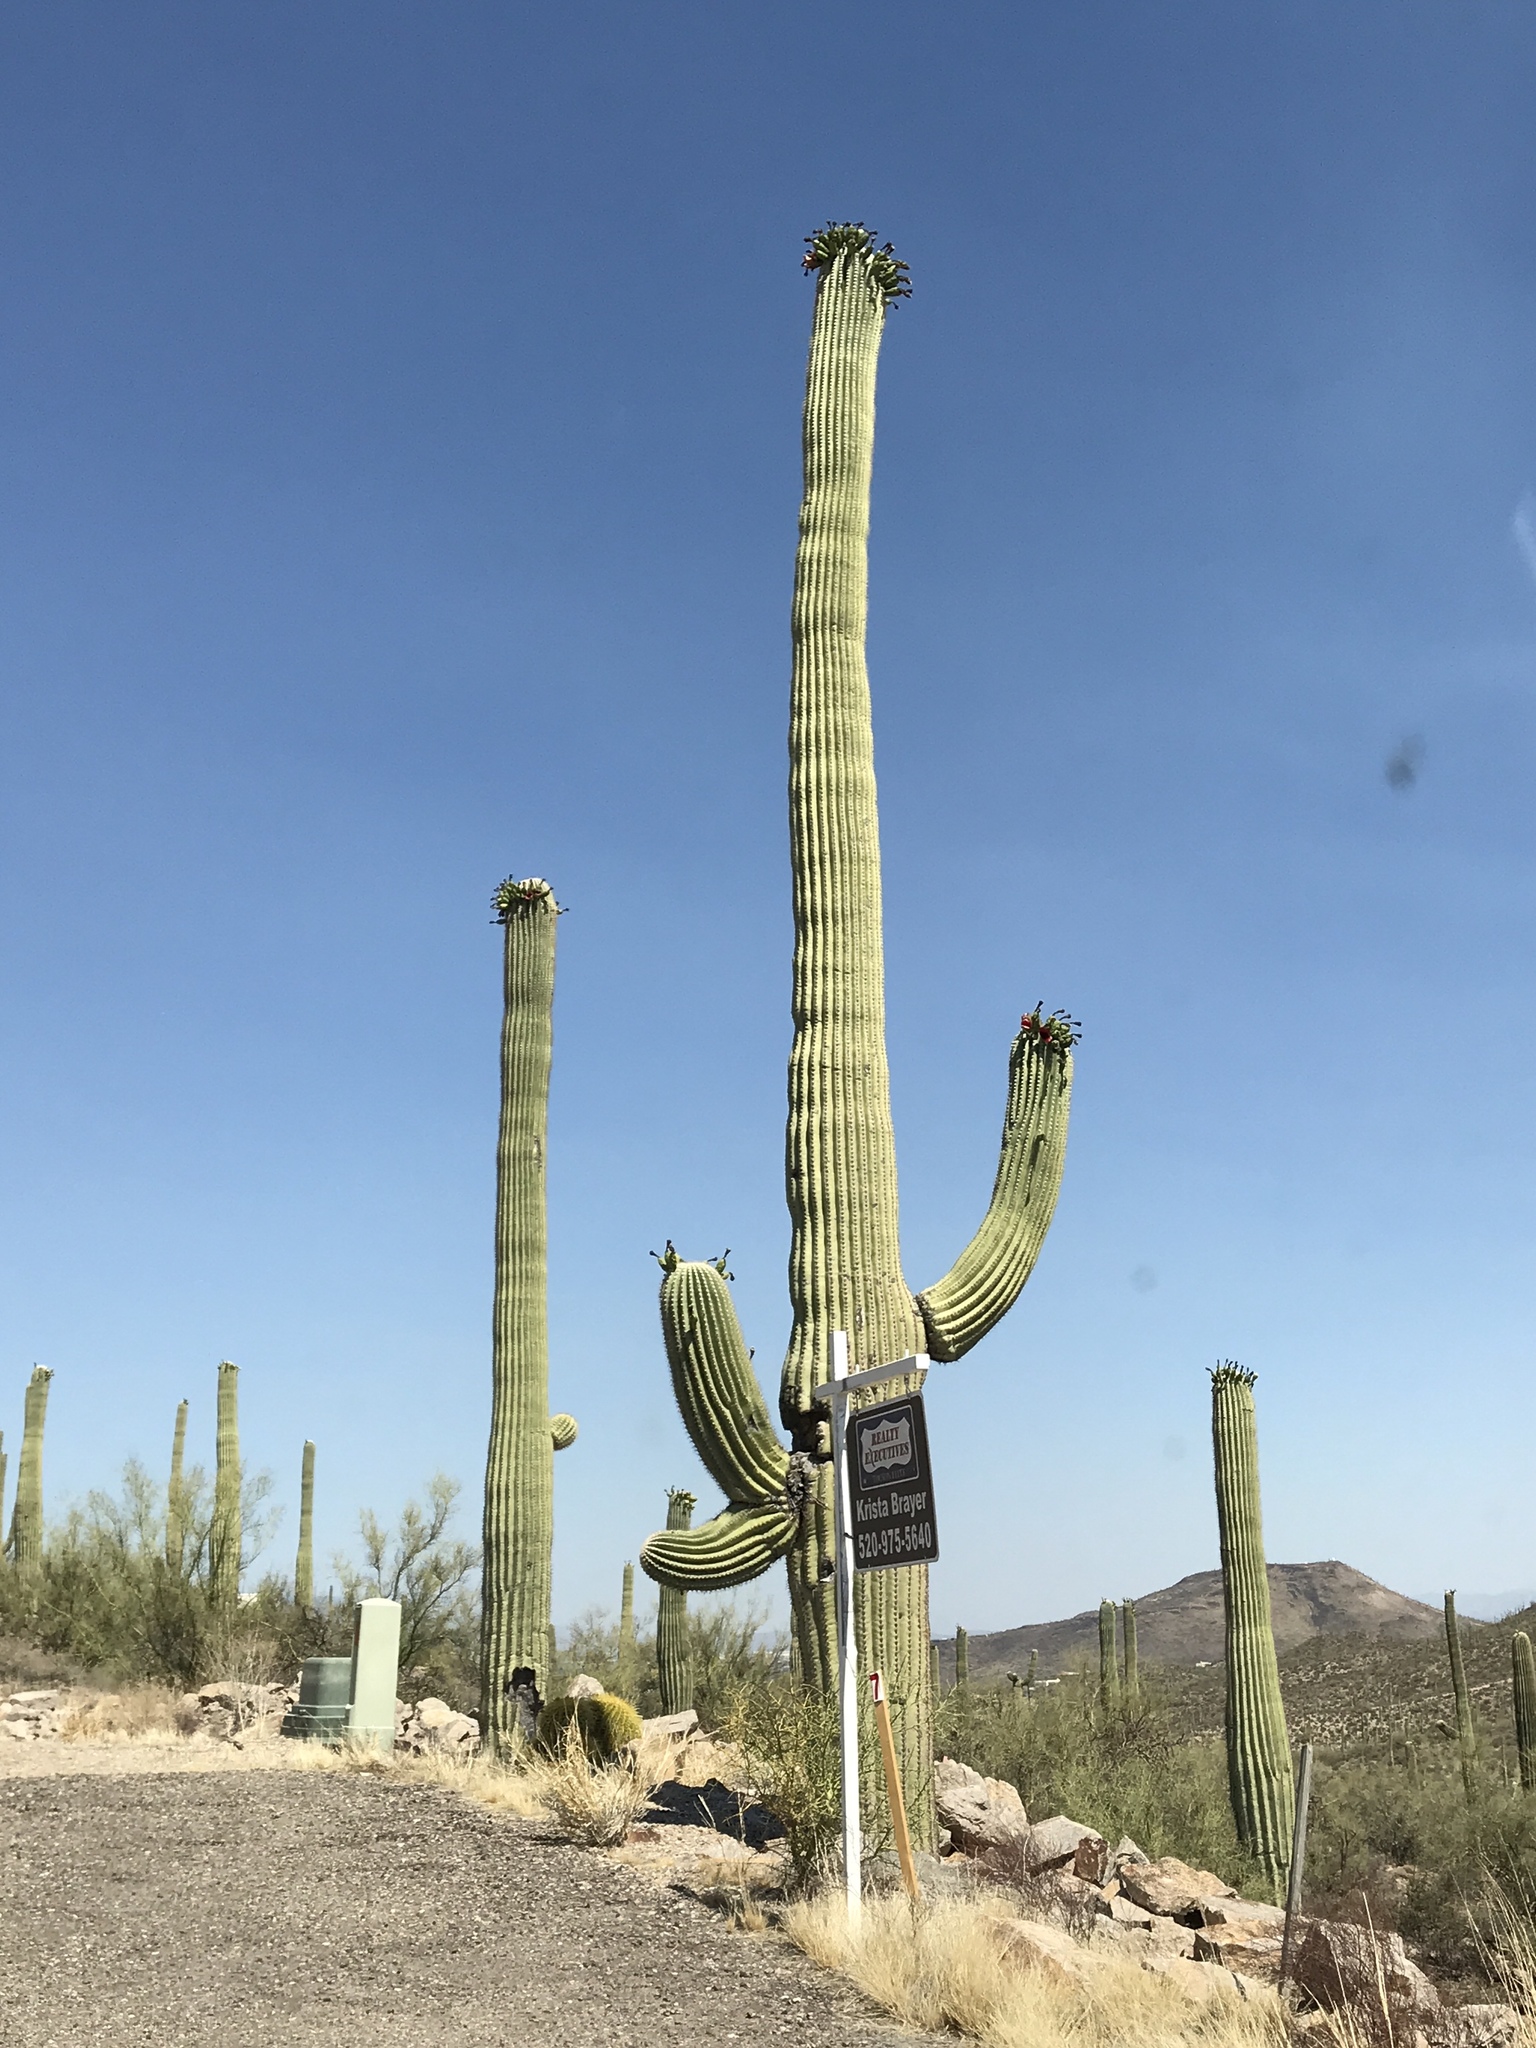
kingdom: Plantae
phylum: Tracheophyta
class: Magnoliopsida
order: Caryophyllales
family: Cactaceae
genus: Carnegiea
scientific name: Carnegiea gigantea
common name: Saguaro
